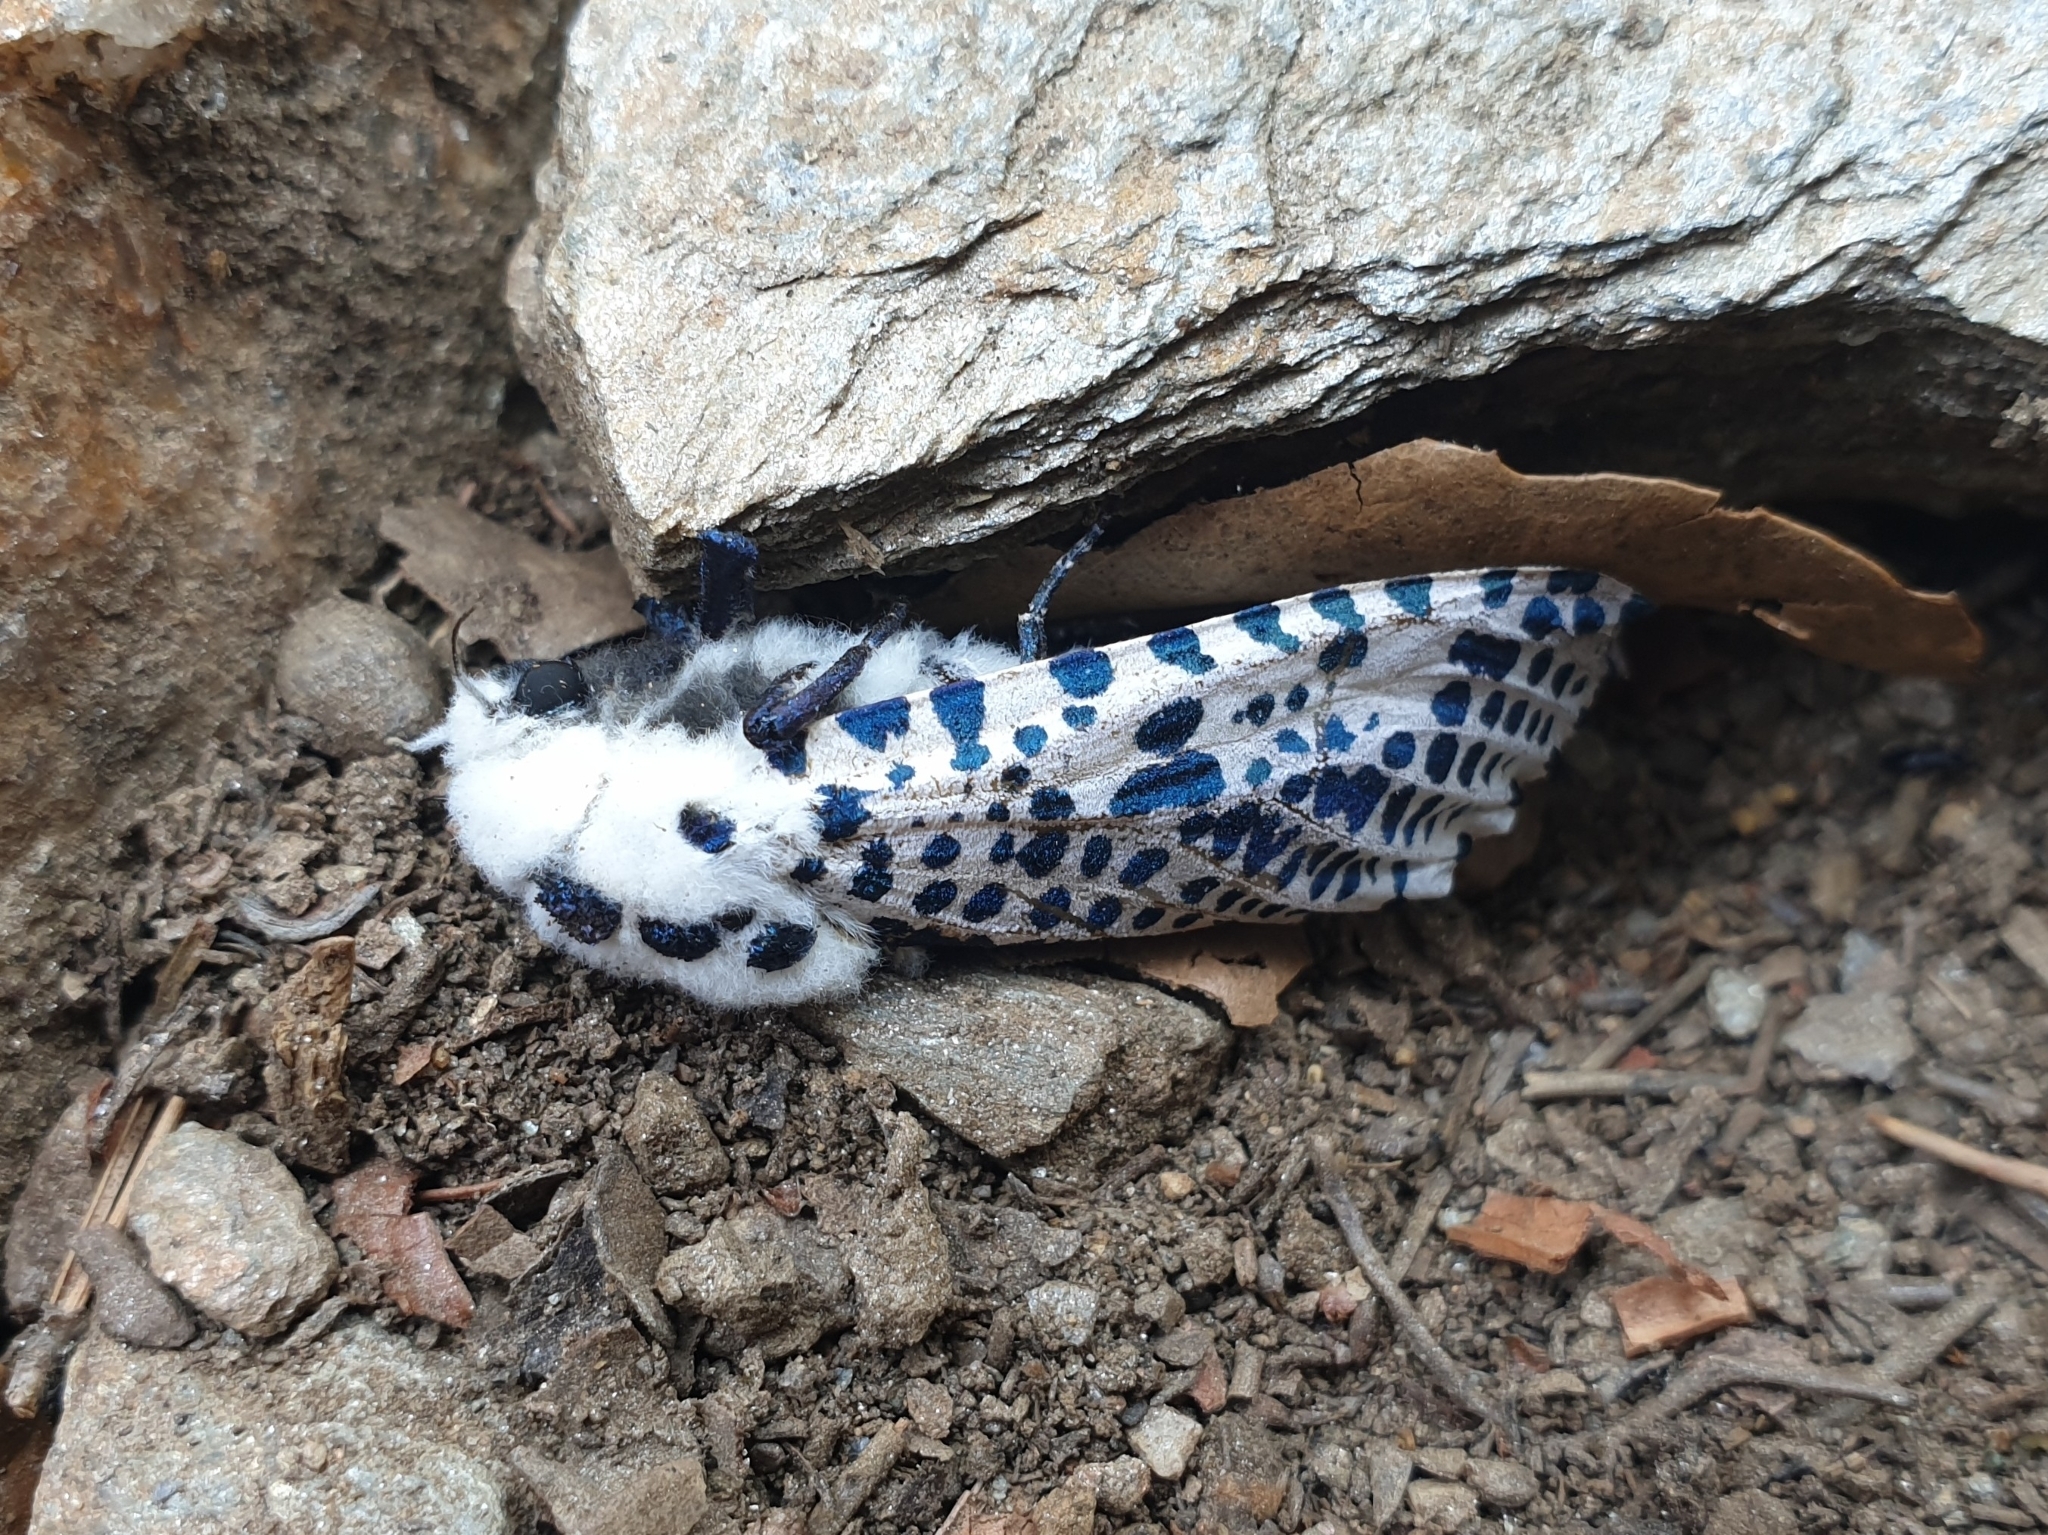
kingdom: Animalia
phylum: Arthropoda
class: Insecta
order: Lepidoptera
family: Cossidae
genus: Zeuzera
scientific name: Zeuzera pyrina
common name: Leopard moth
